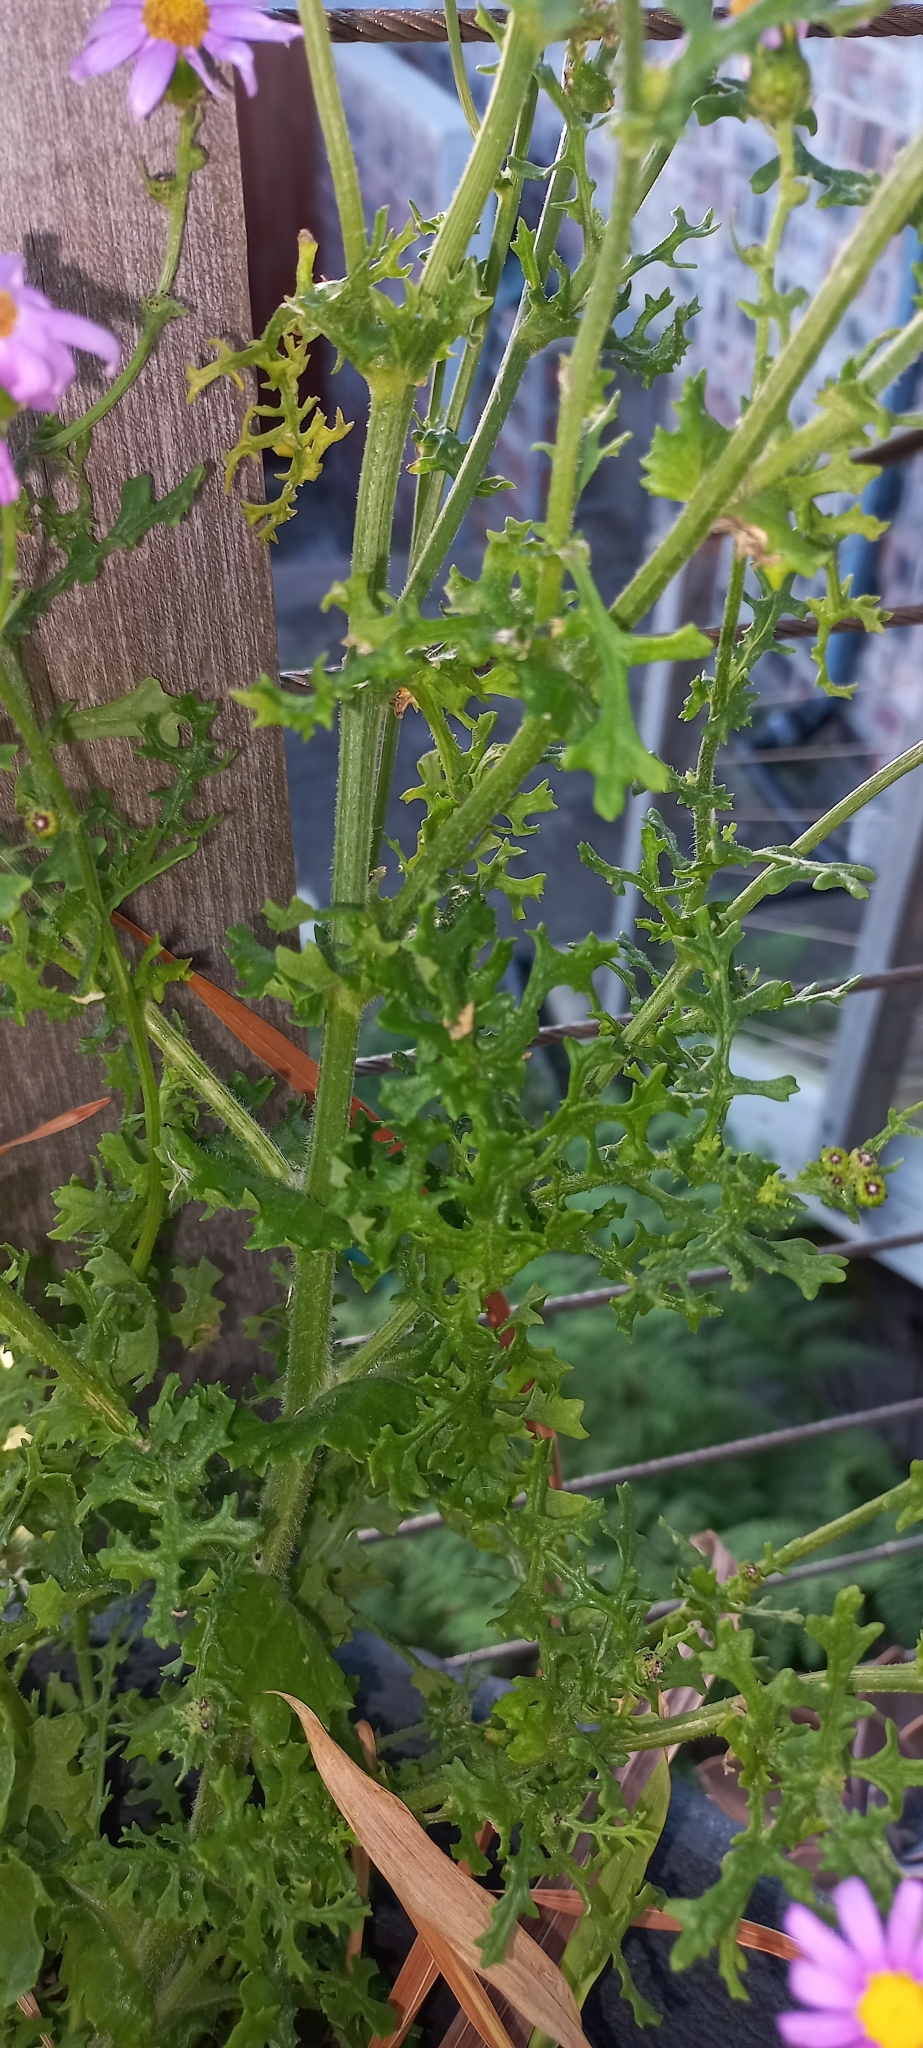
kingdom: Plantae
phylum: Tracheophyta
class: Magnoliopsida
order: Asterales
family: Asteraceae
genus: Senecio
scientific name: Senecio elegans
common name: Purple groundsel
